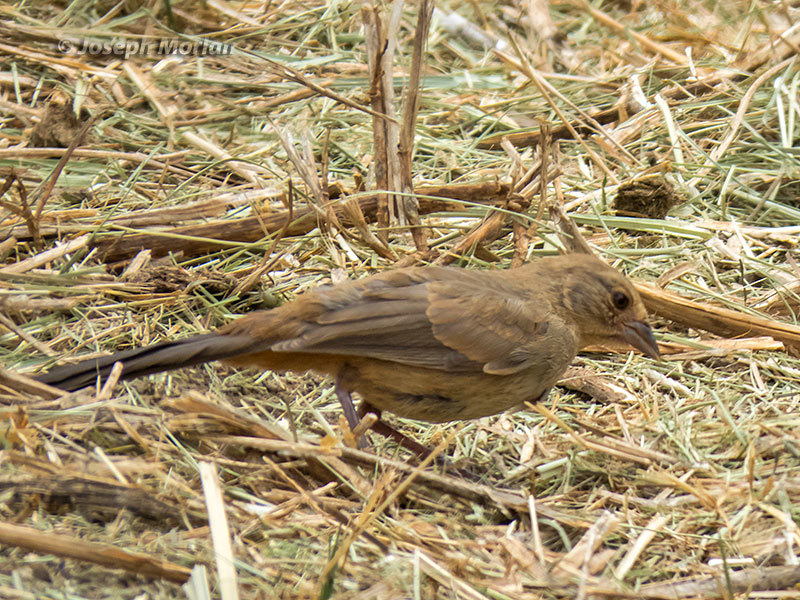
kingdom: Animalia
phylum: Chordata
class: Aves
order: Passeriformes
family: Passerellidae
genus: Melozone
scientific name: Melozone crissalis
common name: California towhee
